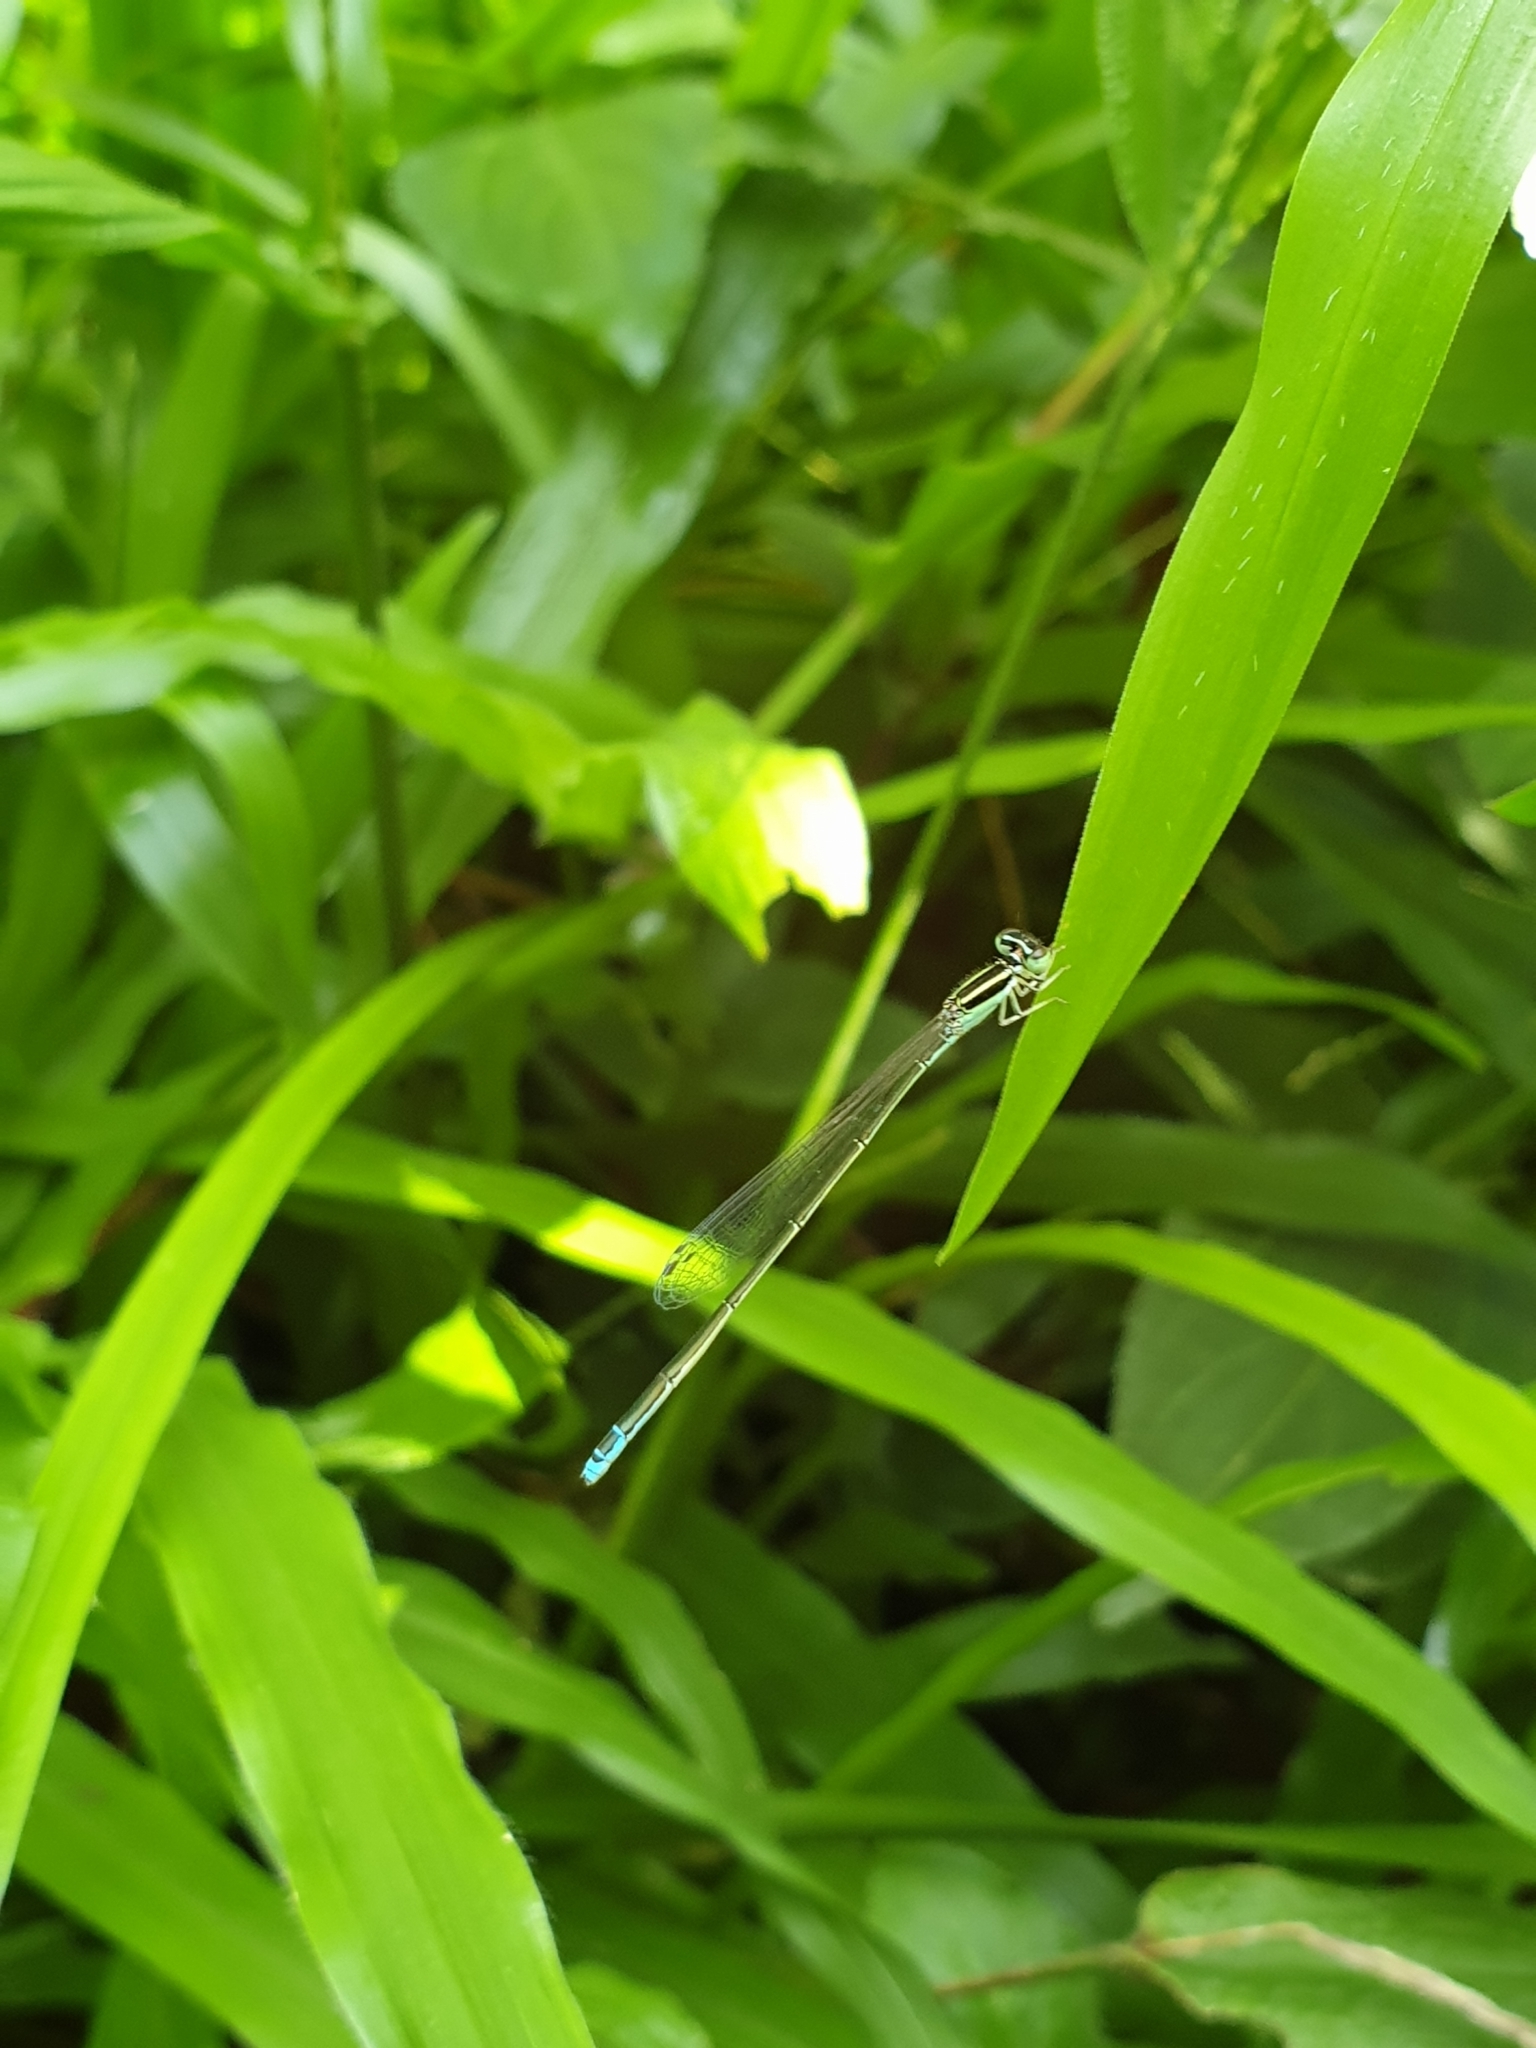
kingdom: Animalia
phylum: Arthropoda
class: Insecta
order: Odonata
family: Coenagrionidae
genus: Aciagrion
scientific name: Aciagrion occidentale
